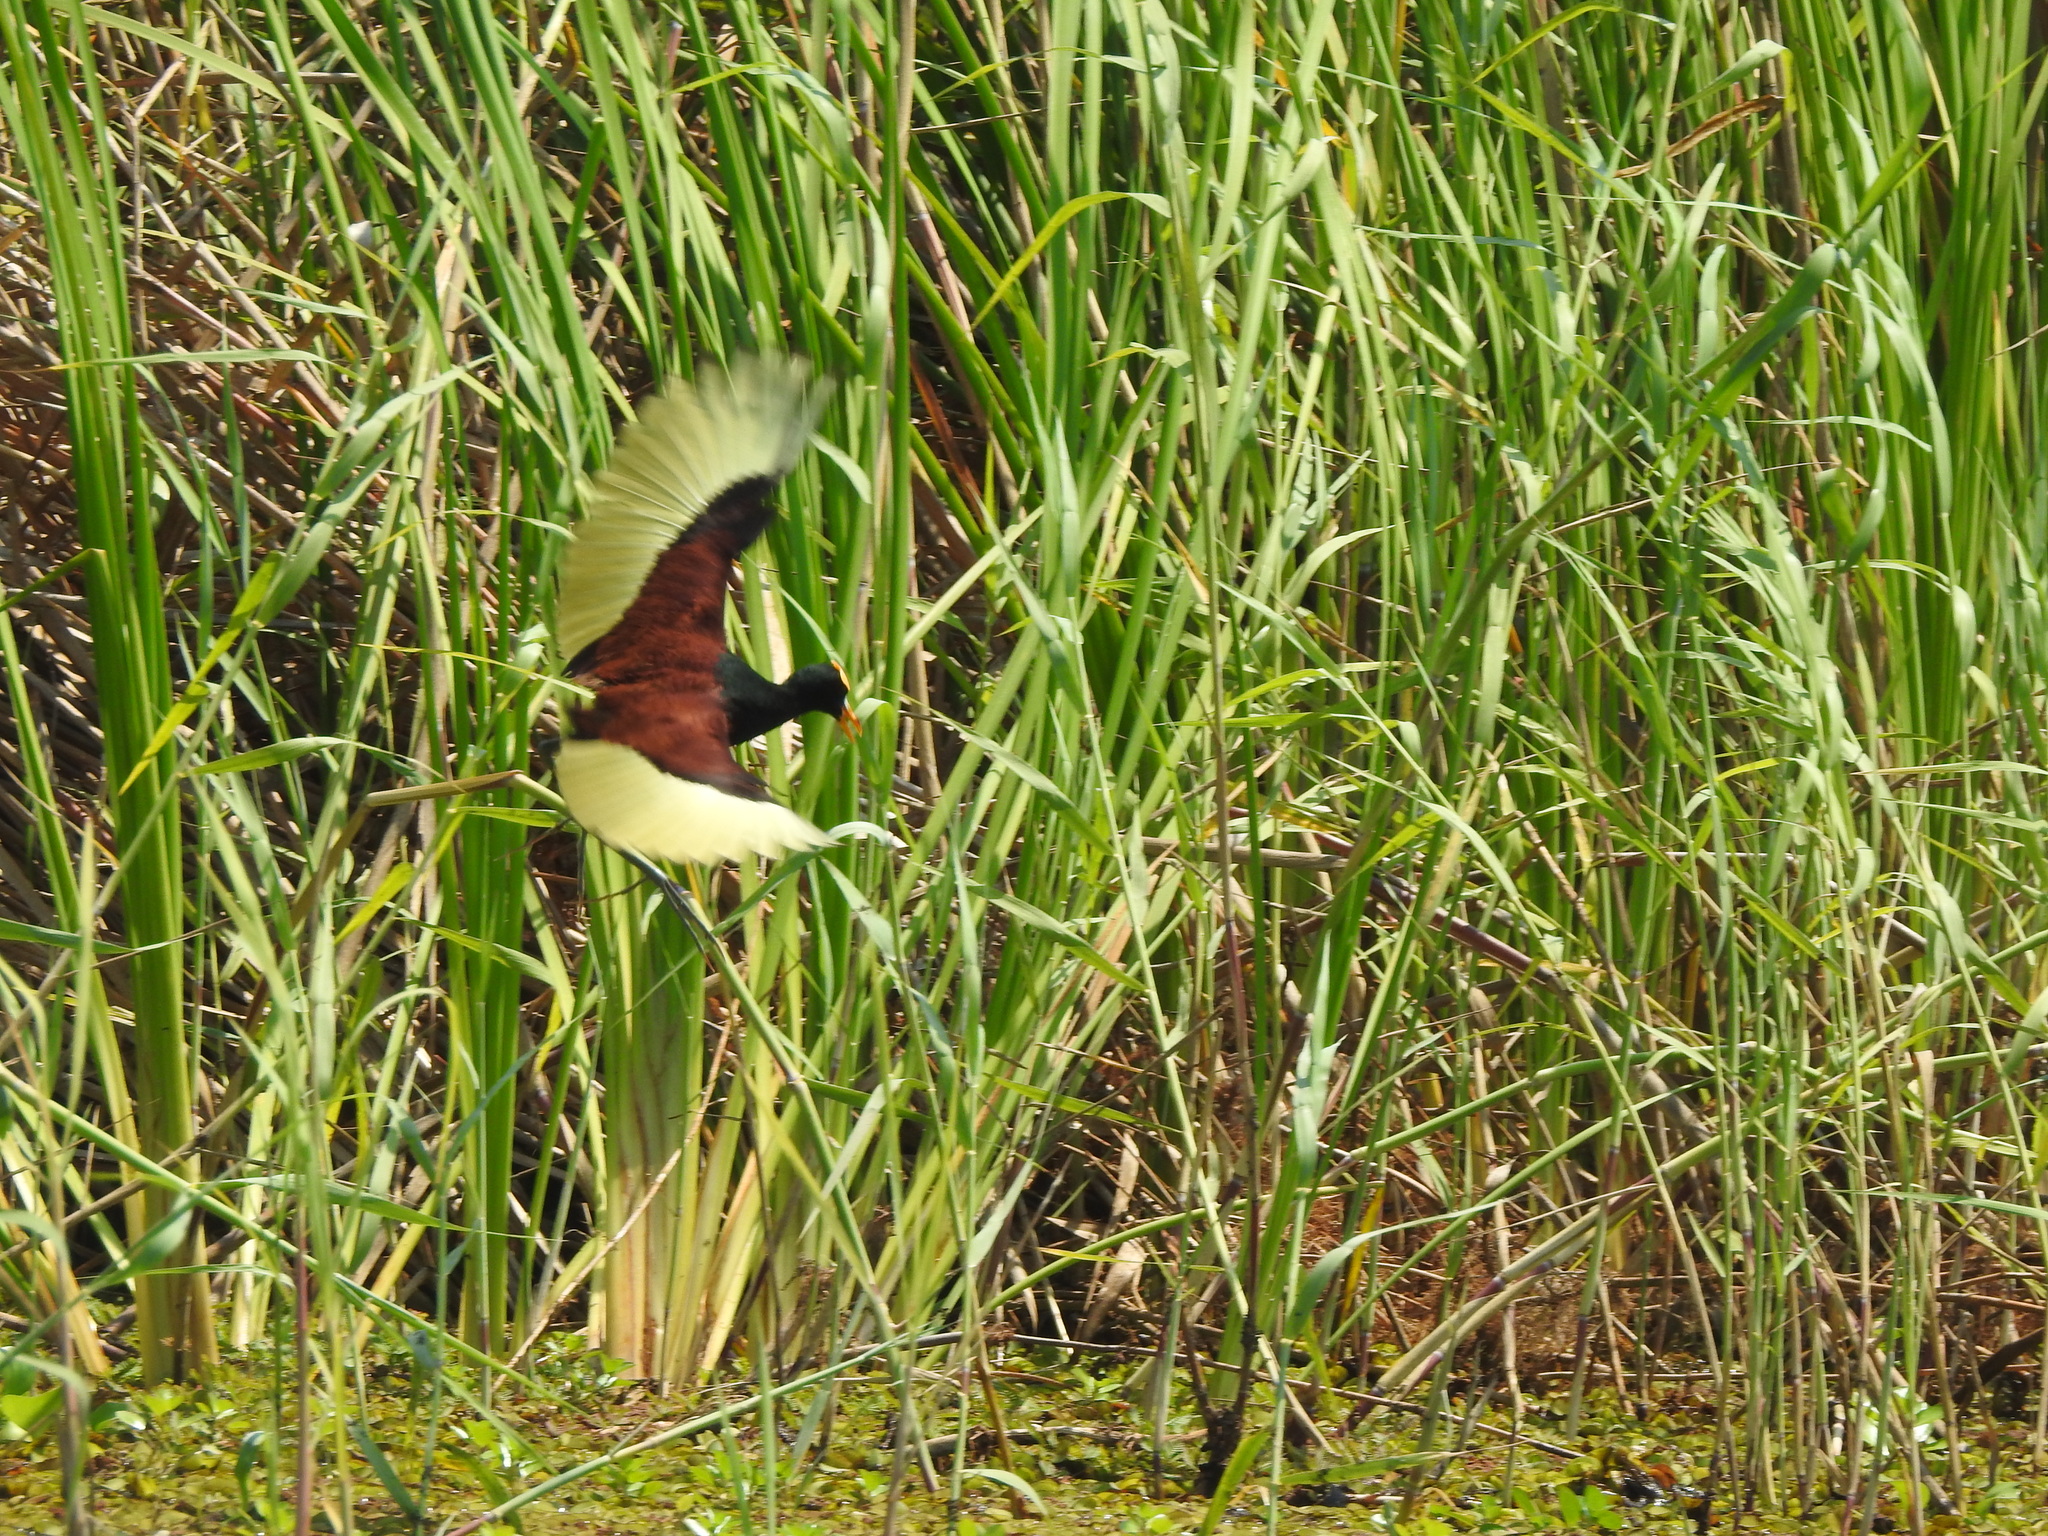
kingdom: Animalia
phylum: Chordata
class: Aves
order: Charadriiformes
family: Jacanidae
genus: Jacana
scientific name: Jacana spinosa
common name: Northern jacana
